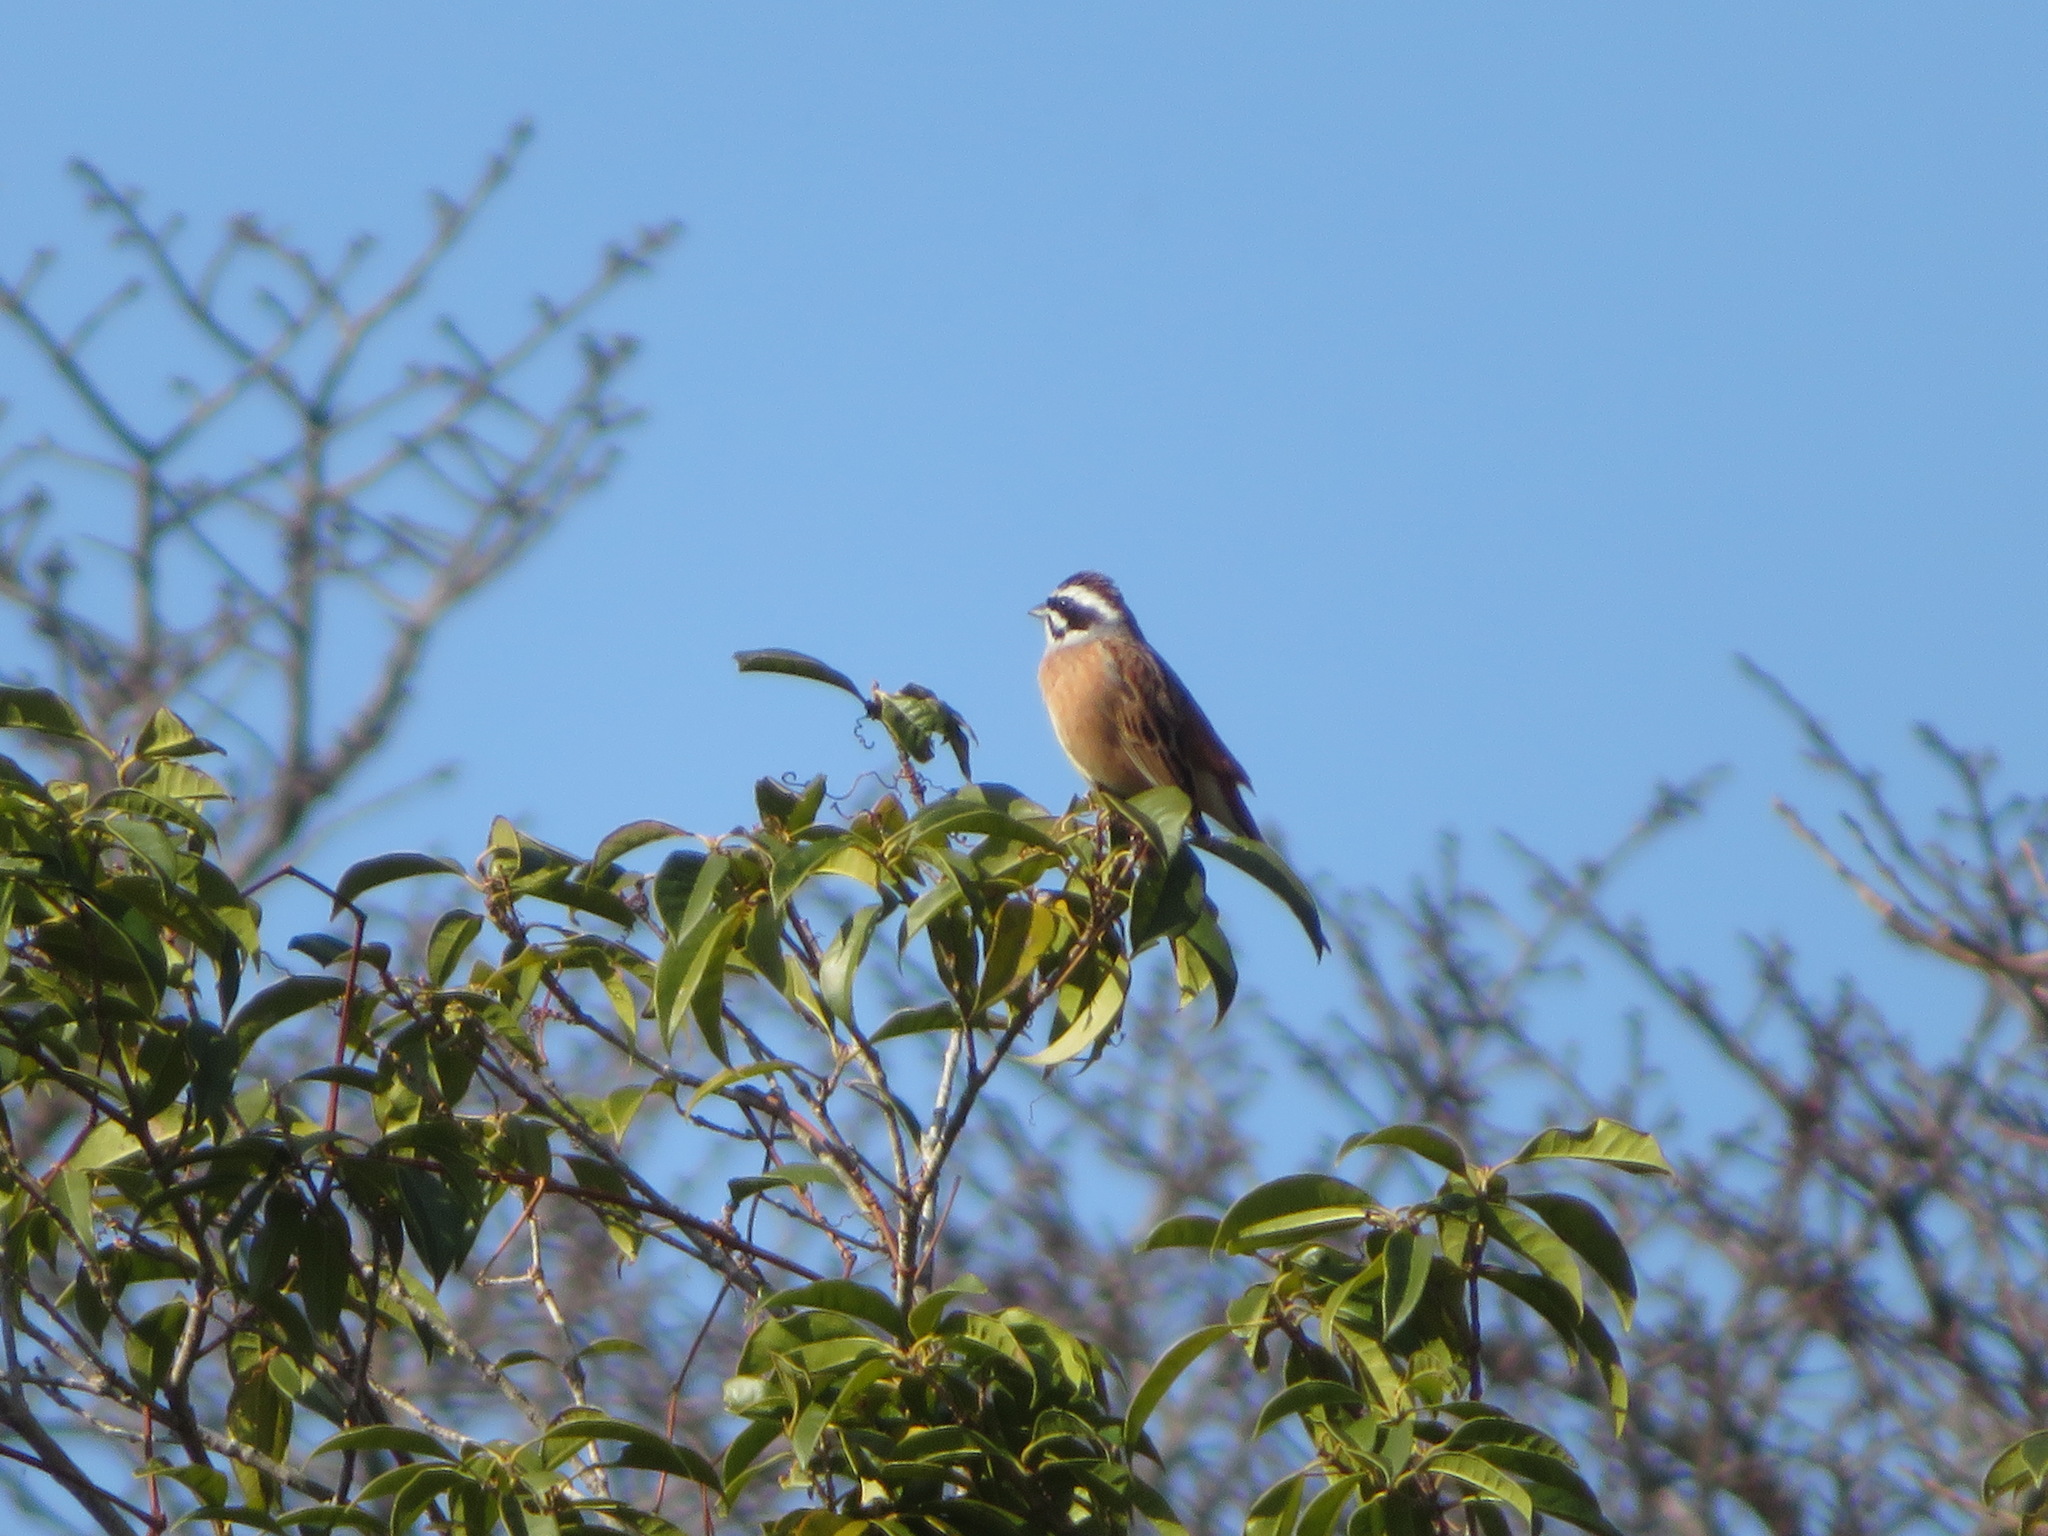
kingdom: Animalia
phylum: Chordata
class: Aves
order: Passeriformes
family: Emberizidae
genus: Emberiza
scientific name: Emberiza cioides
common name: Meadow bunting
